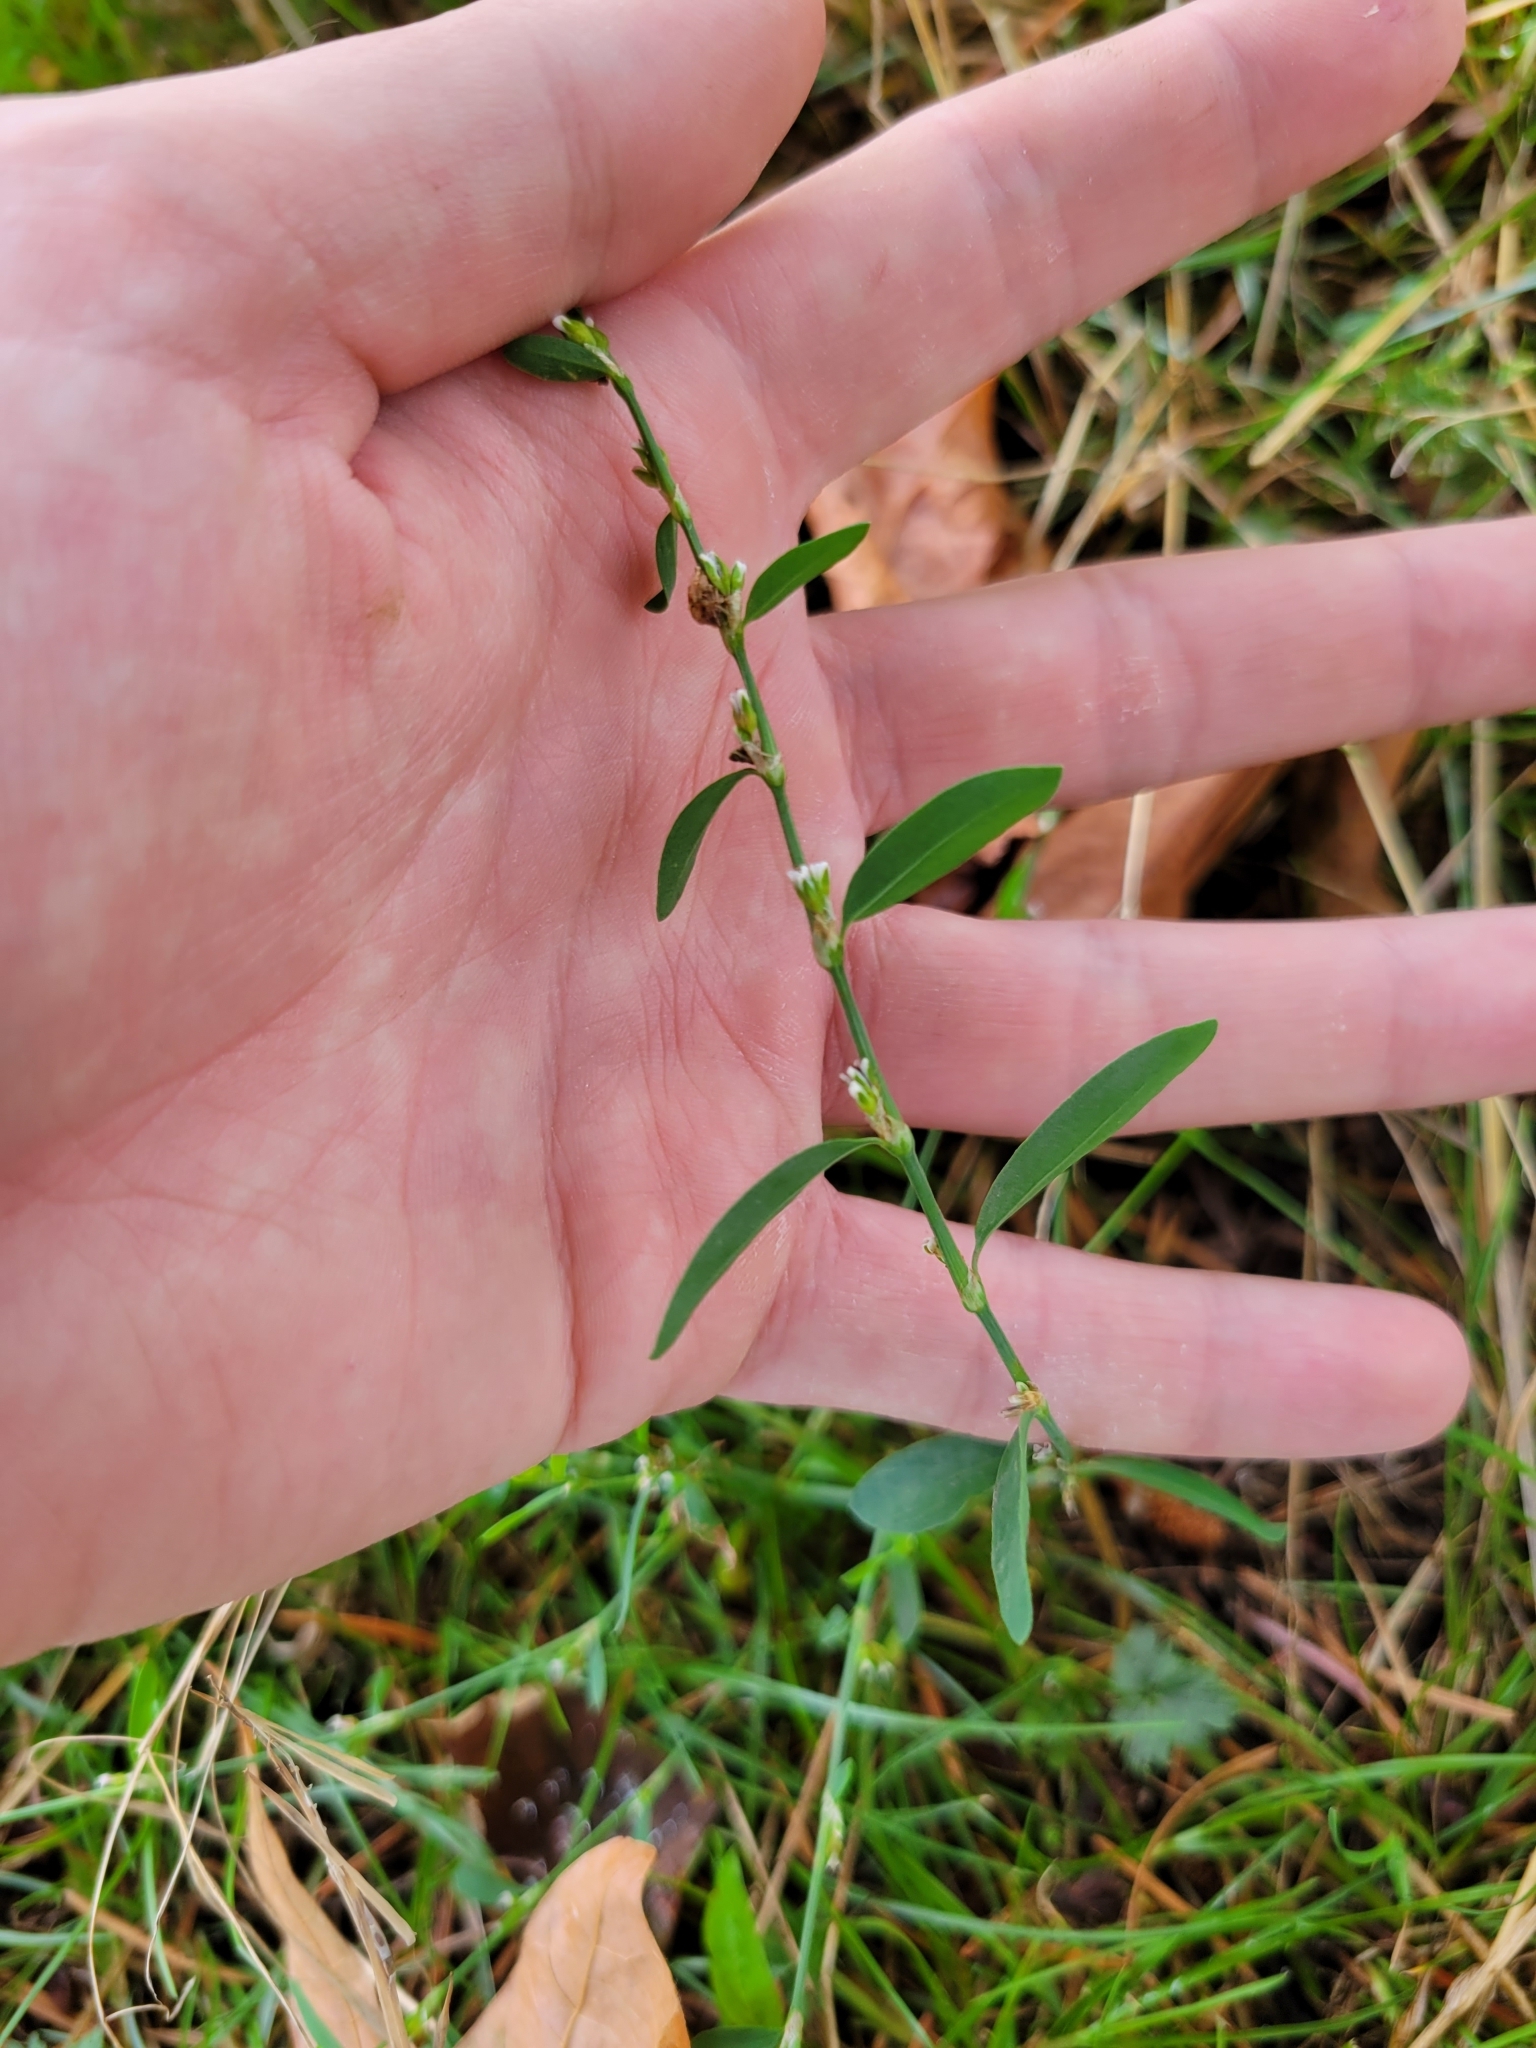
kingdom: Plantae
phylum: Tracheophyta
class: Magnoliopsida
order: Caryophyllales
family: Polygonaceae
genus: Polygonum
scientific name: Polygonum aviculare
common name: Prostrate knotweed
